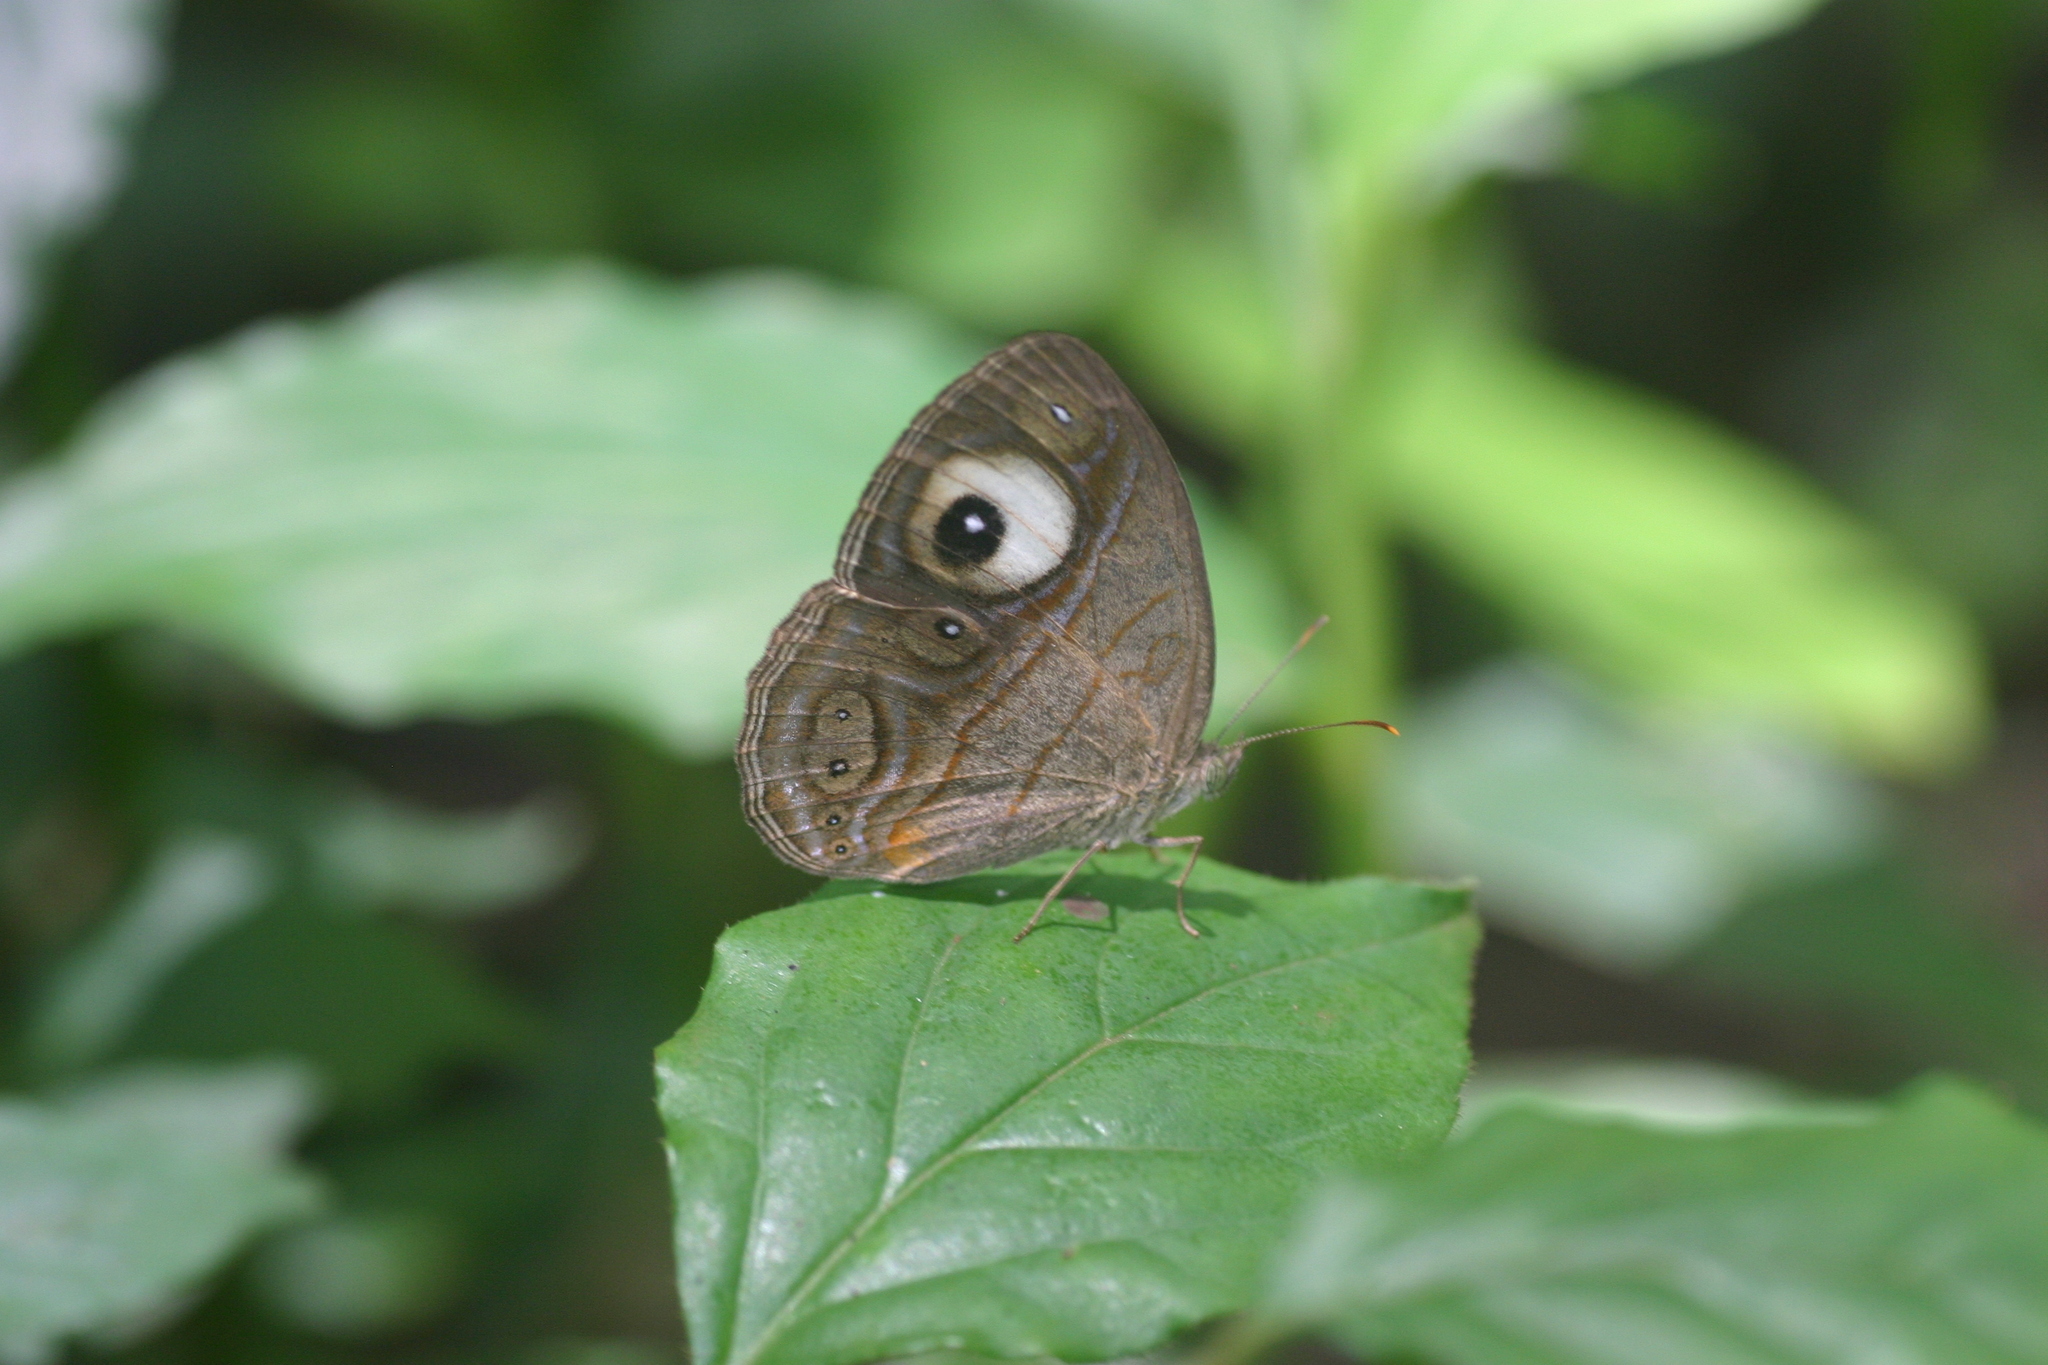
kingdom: Animalia
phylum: Arthropoda
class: Insecta
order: Lepidoptera
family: Nymphalidae
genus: Mycalesis
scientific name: Mycalesis patnia
